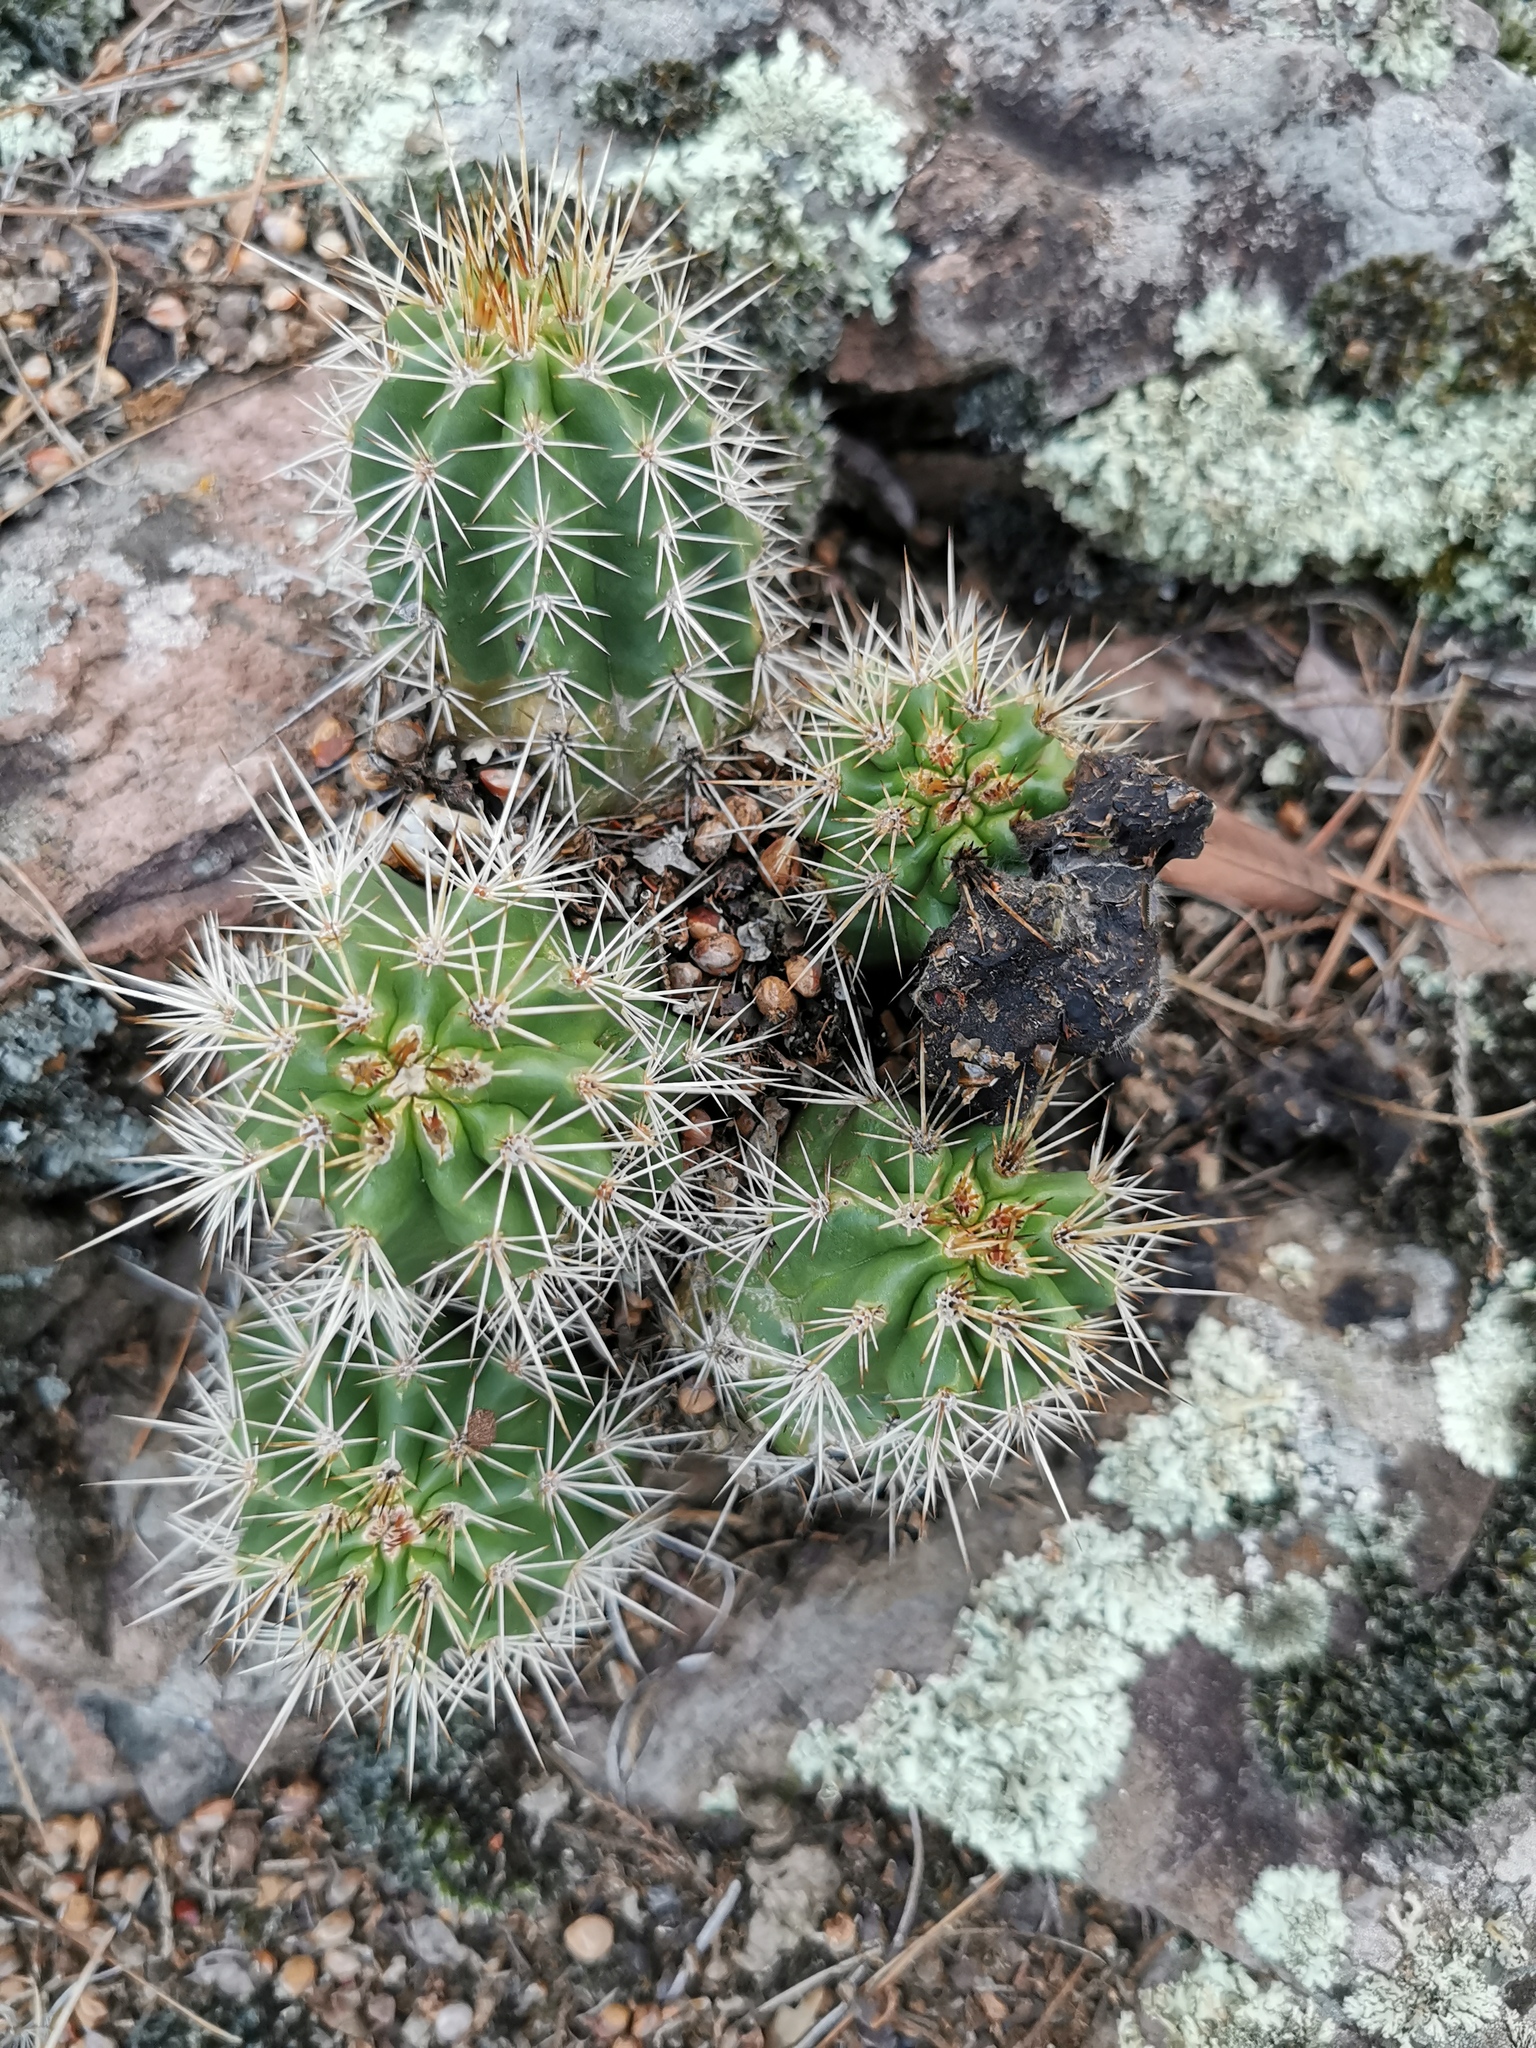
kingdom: Plantae
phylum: Tracheophyta
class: Magnoliopsida
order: Caryophyllales
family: Cactaceae
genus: Echinocereus
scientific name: Echinocereus polyacanthus
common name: Mojave mound cactus
